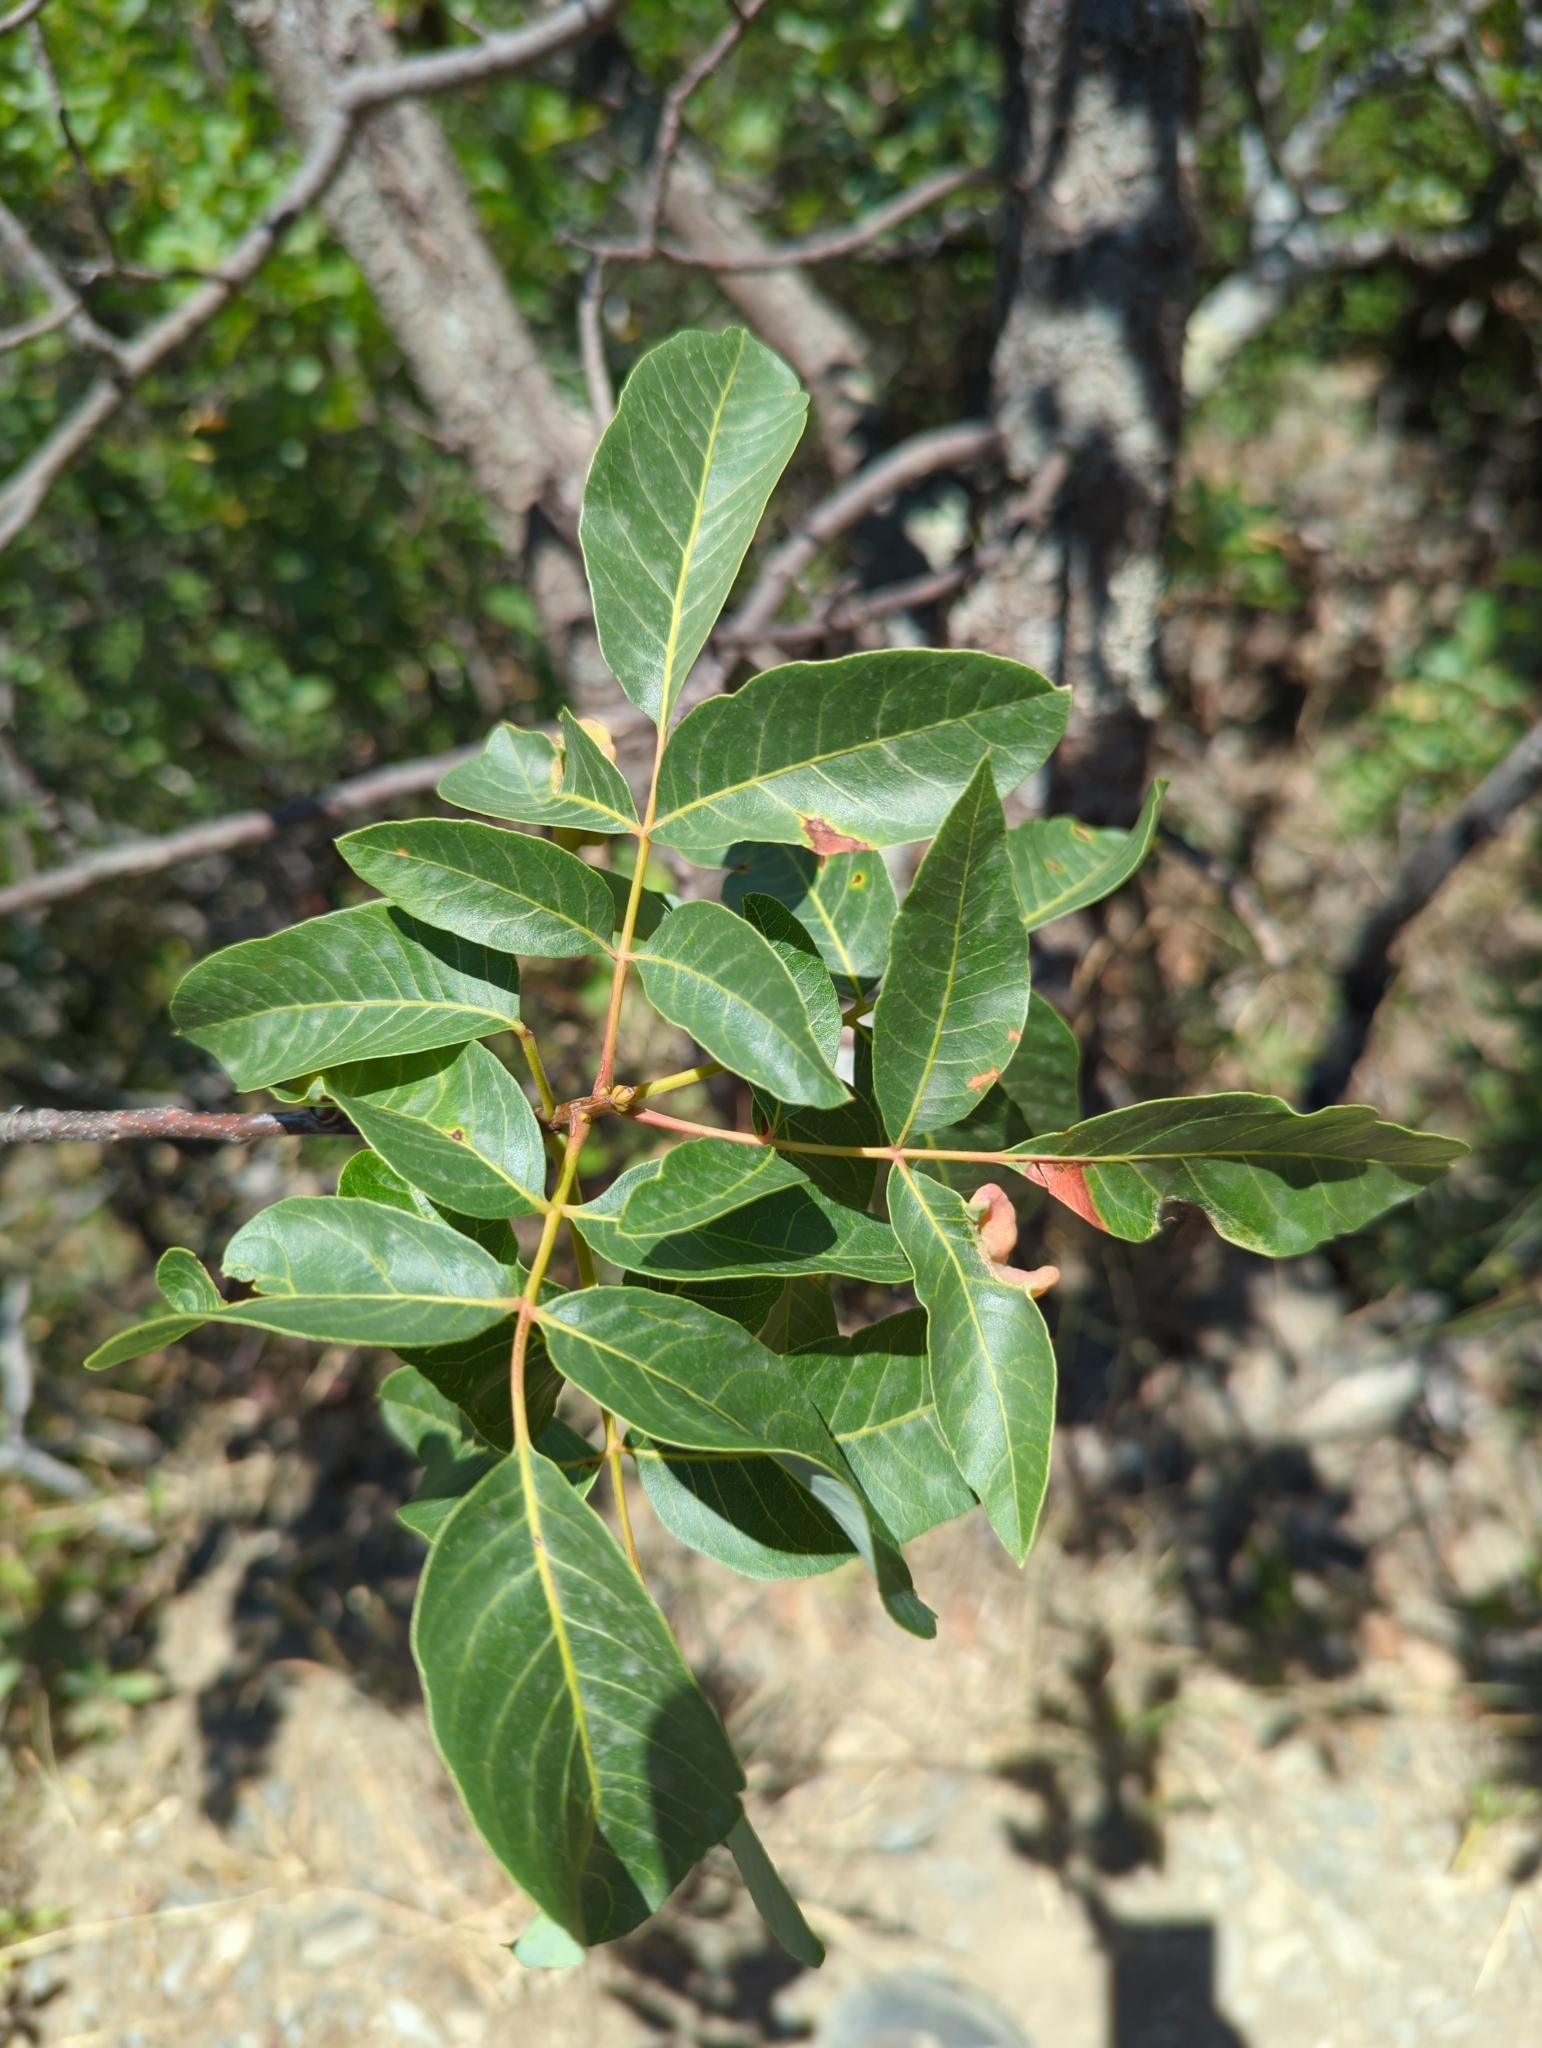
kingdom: Plantae
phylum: Tracheophyta
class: Magnoliopsida
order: Sapindales
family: Anacardiaceae
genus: Pistacia
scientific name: Pistacia terebinthus
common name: Terebinth
